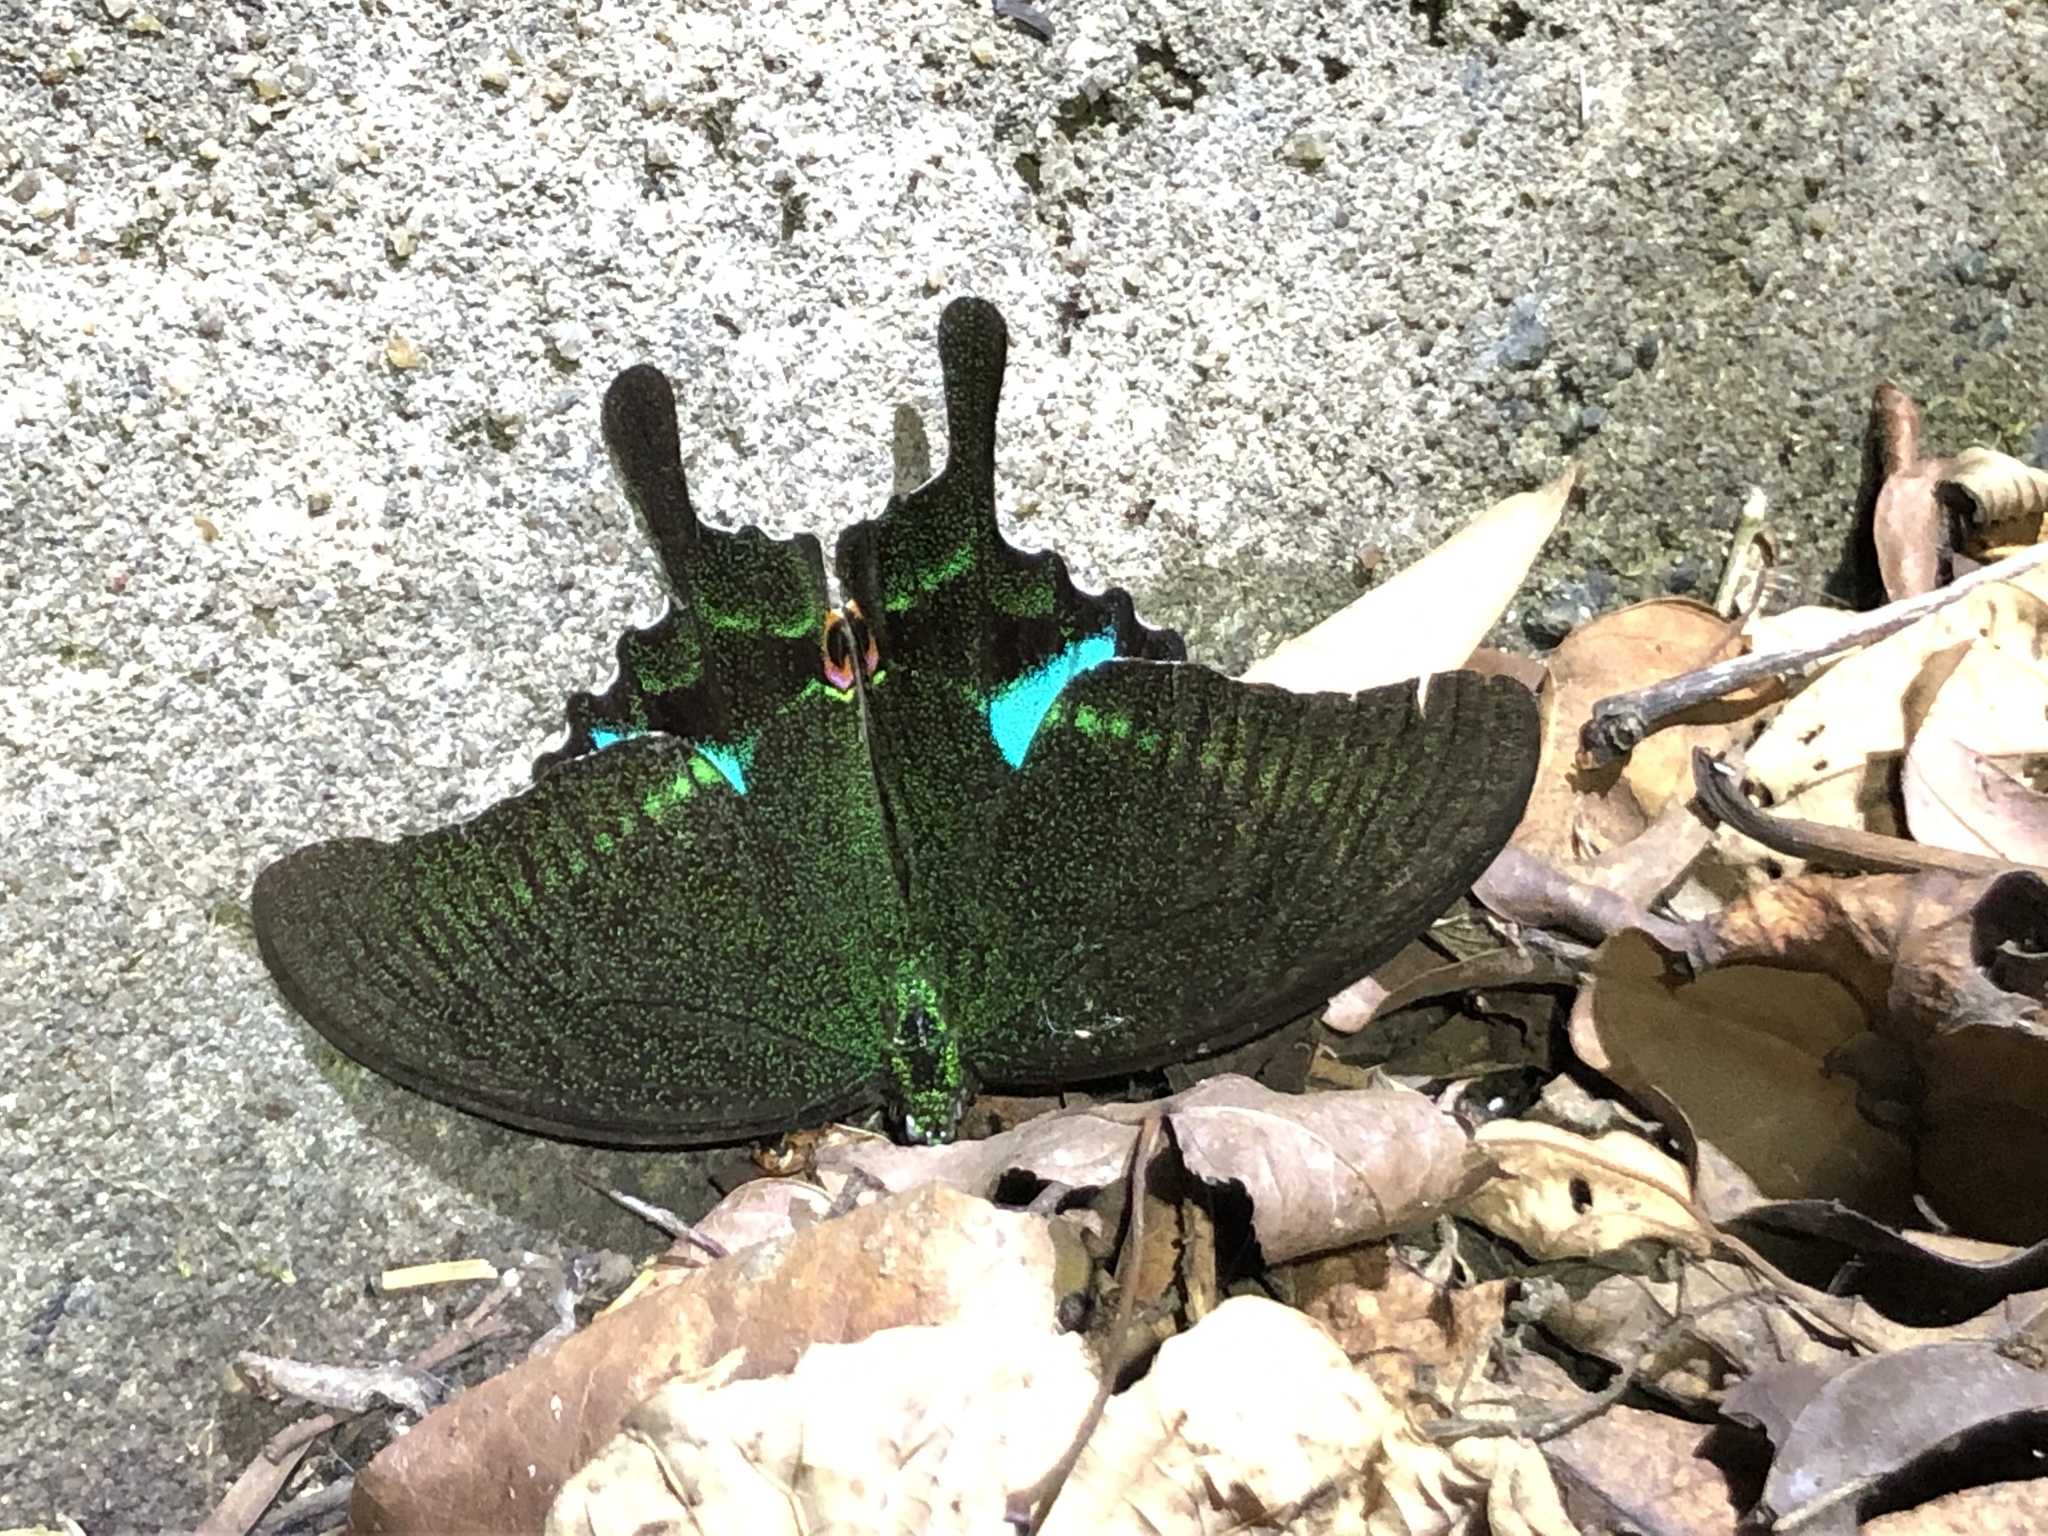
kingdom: Animalia
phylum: Arthropoda
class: Insecta
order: Lepidoptera
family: Papilionidae
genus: Papilio
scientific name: Papilio paris
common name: Paris peacock
